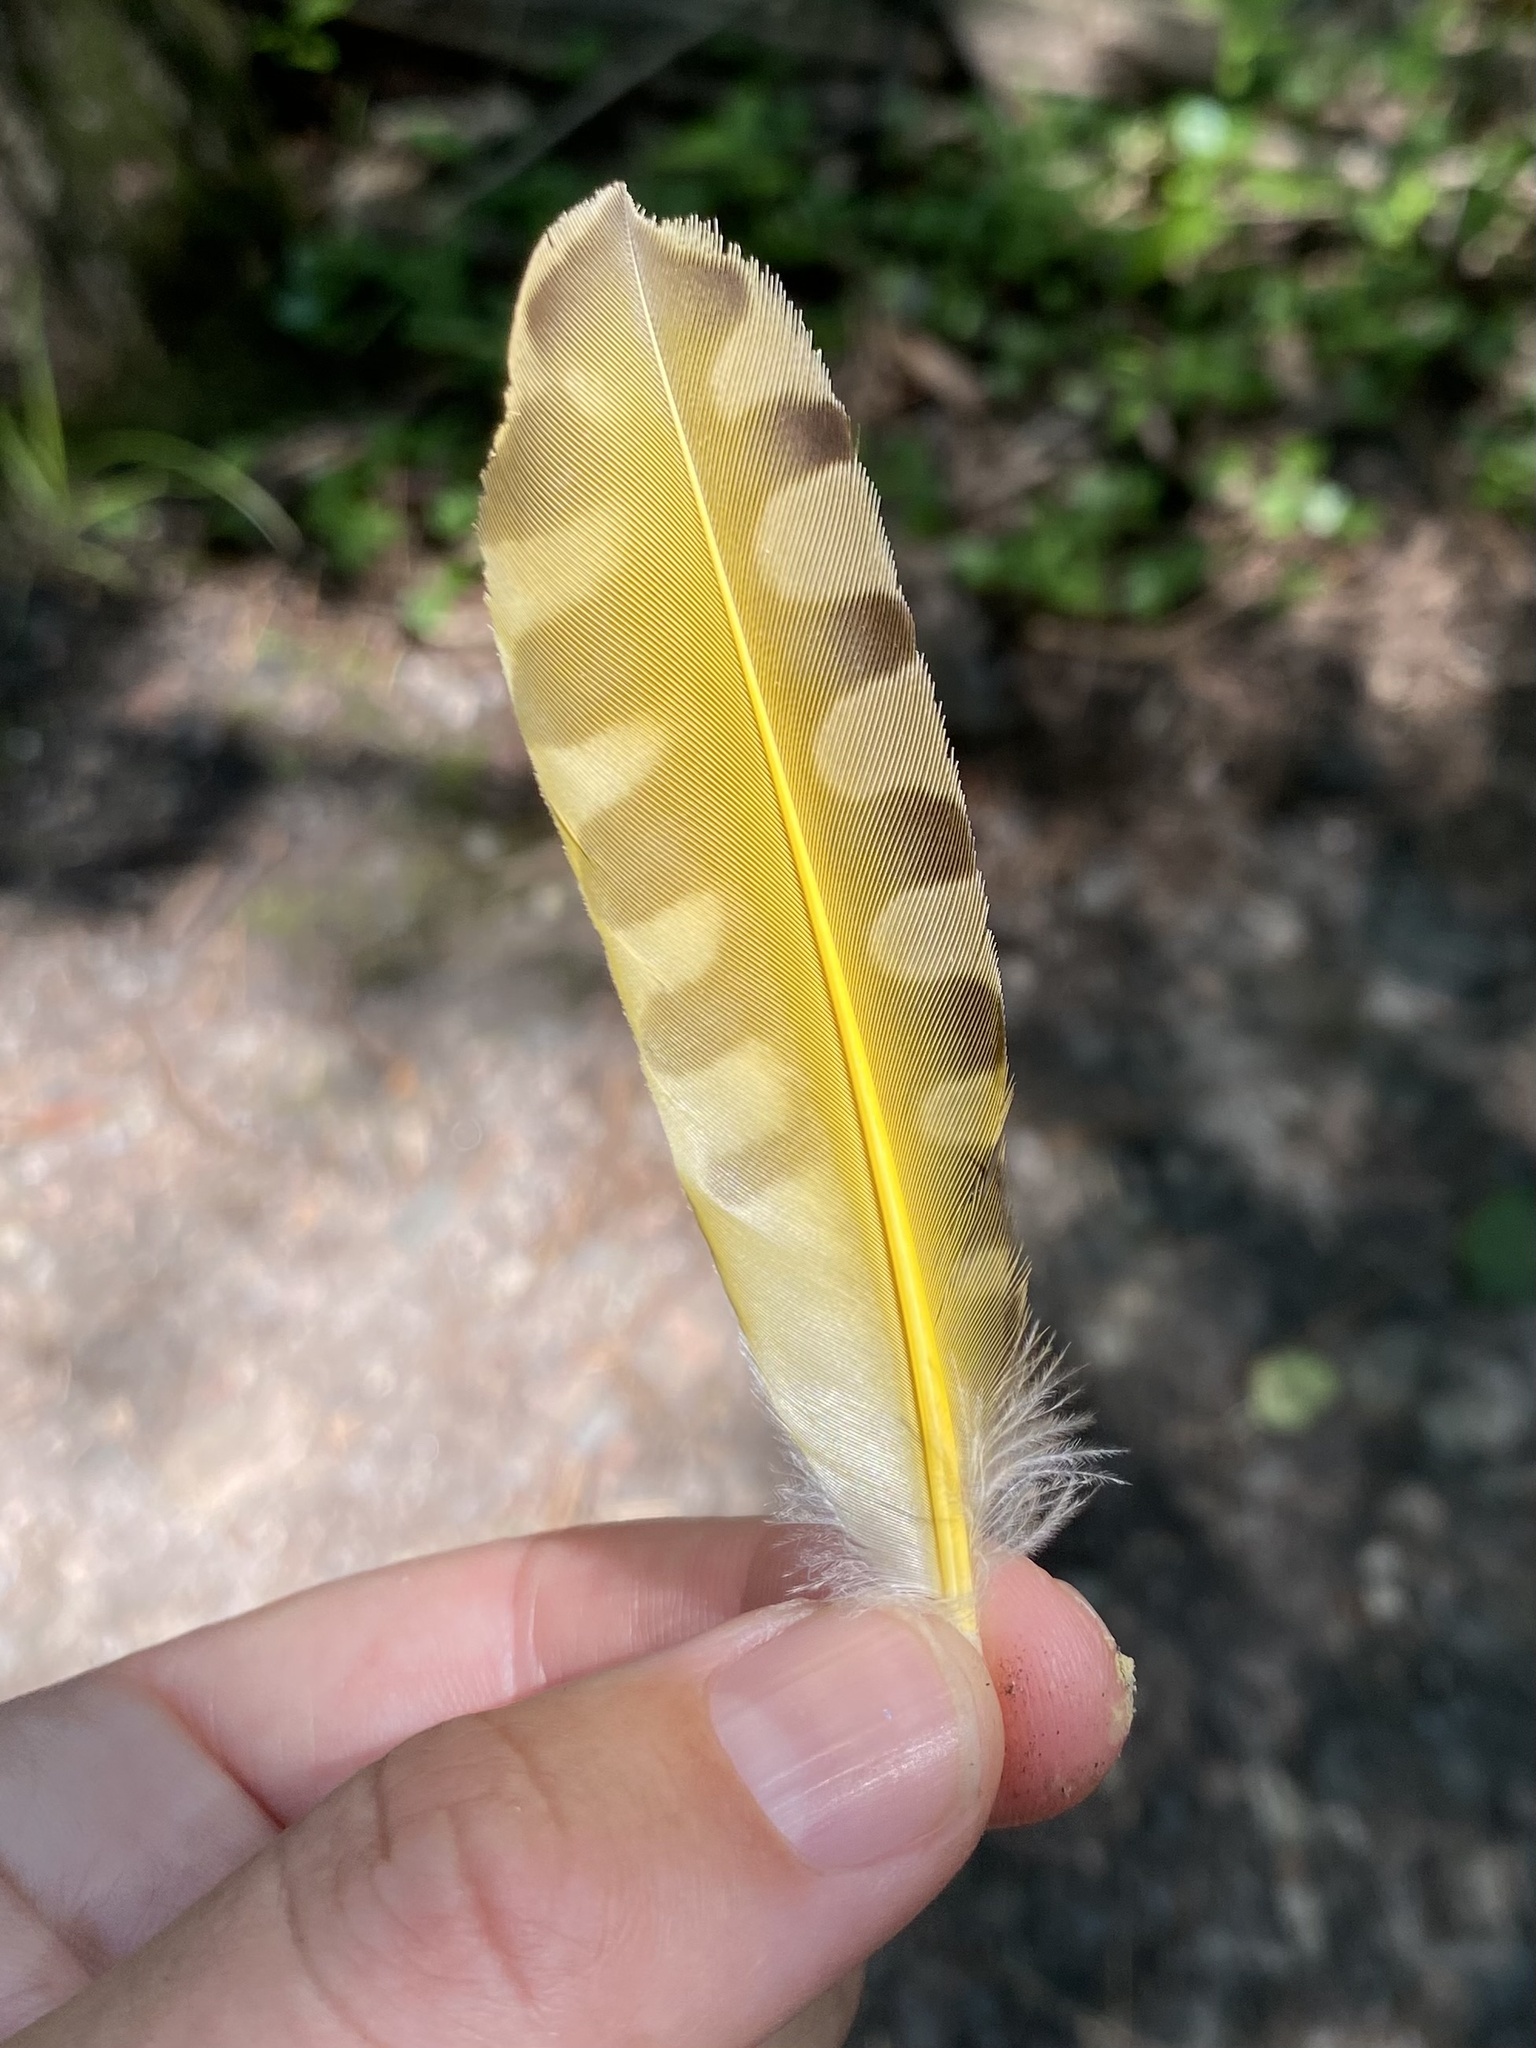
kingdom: Animalia
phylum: Chordata
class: Aves
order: Piciformes
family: Picidae
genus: Colaptes
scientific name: Colaptes auratus
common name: Northern flicker
